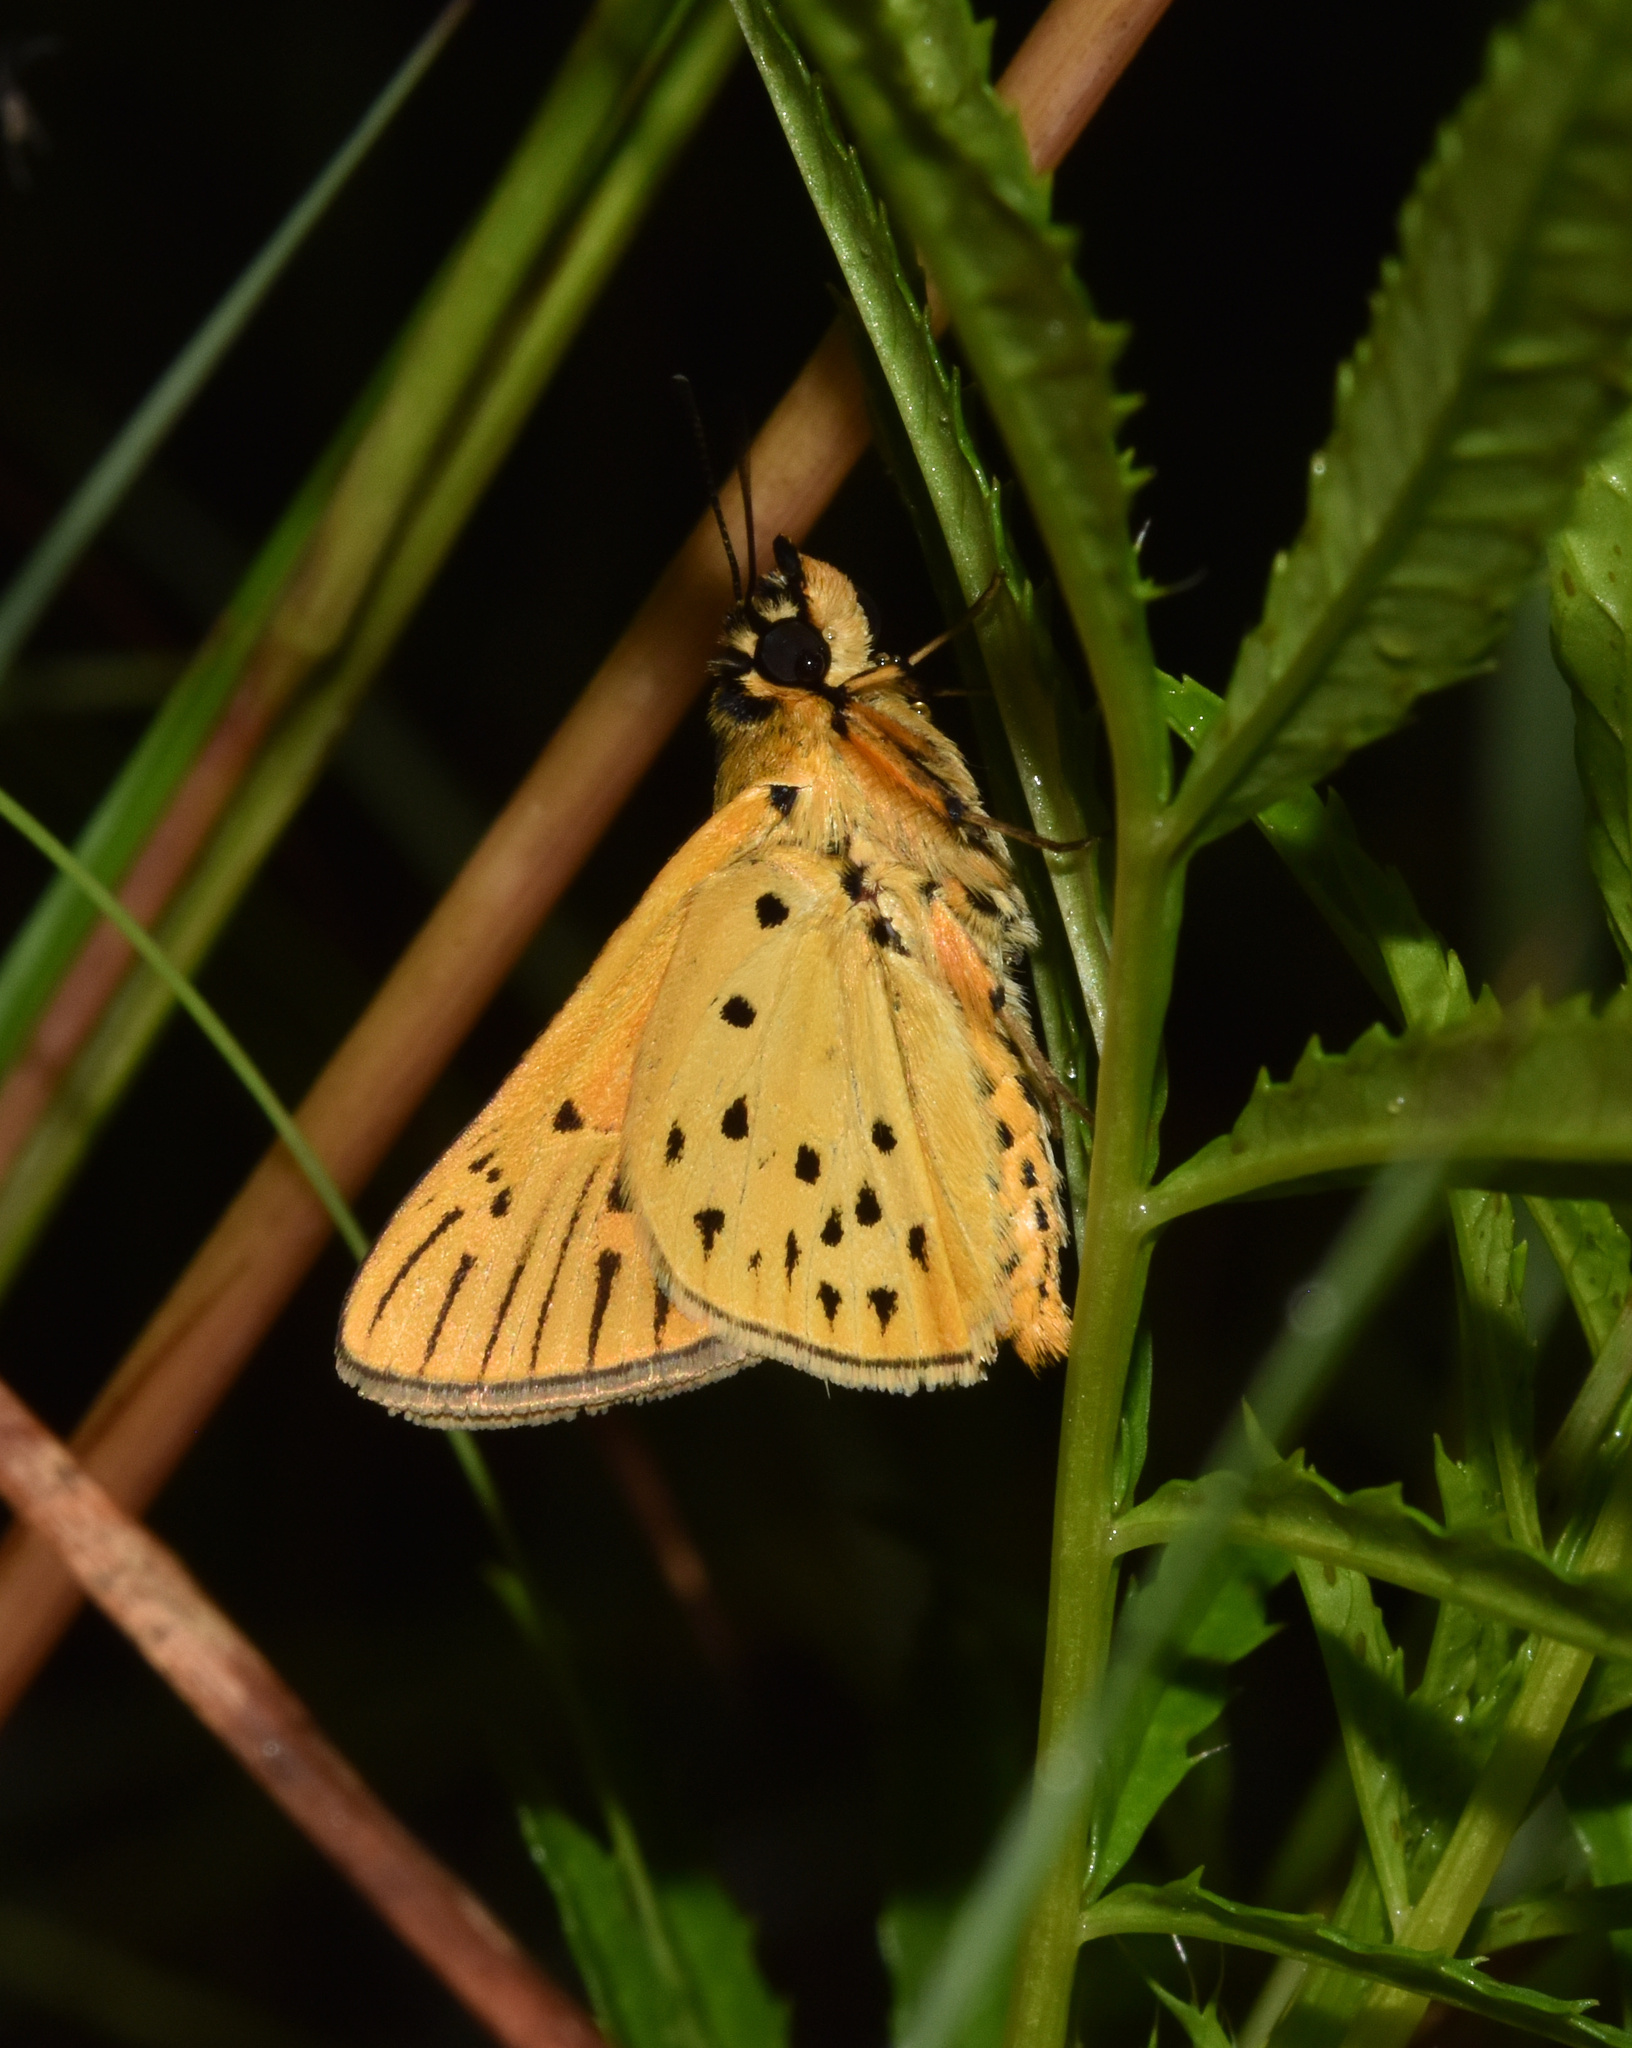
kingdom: Animalia
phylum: Arthropoda
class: Insecta
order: Lepidoptera
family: Hesperiidae
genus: Kedestes
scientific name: Kedestes lepenula
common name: Chequered ranger
